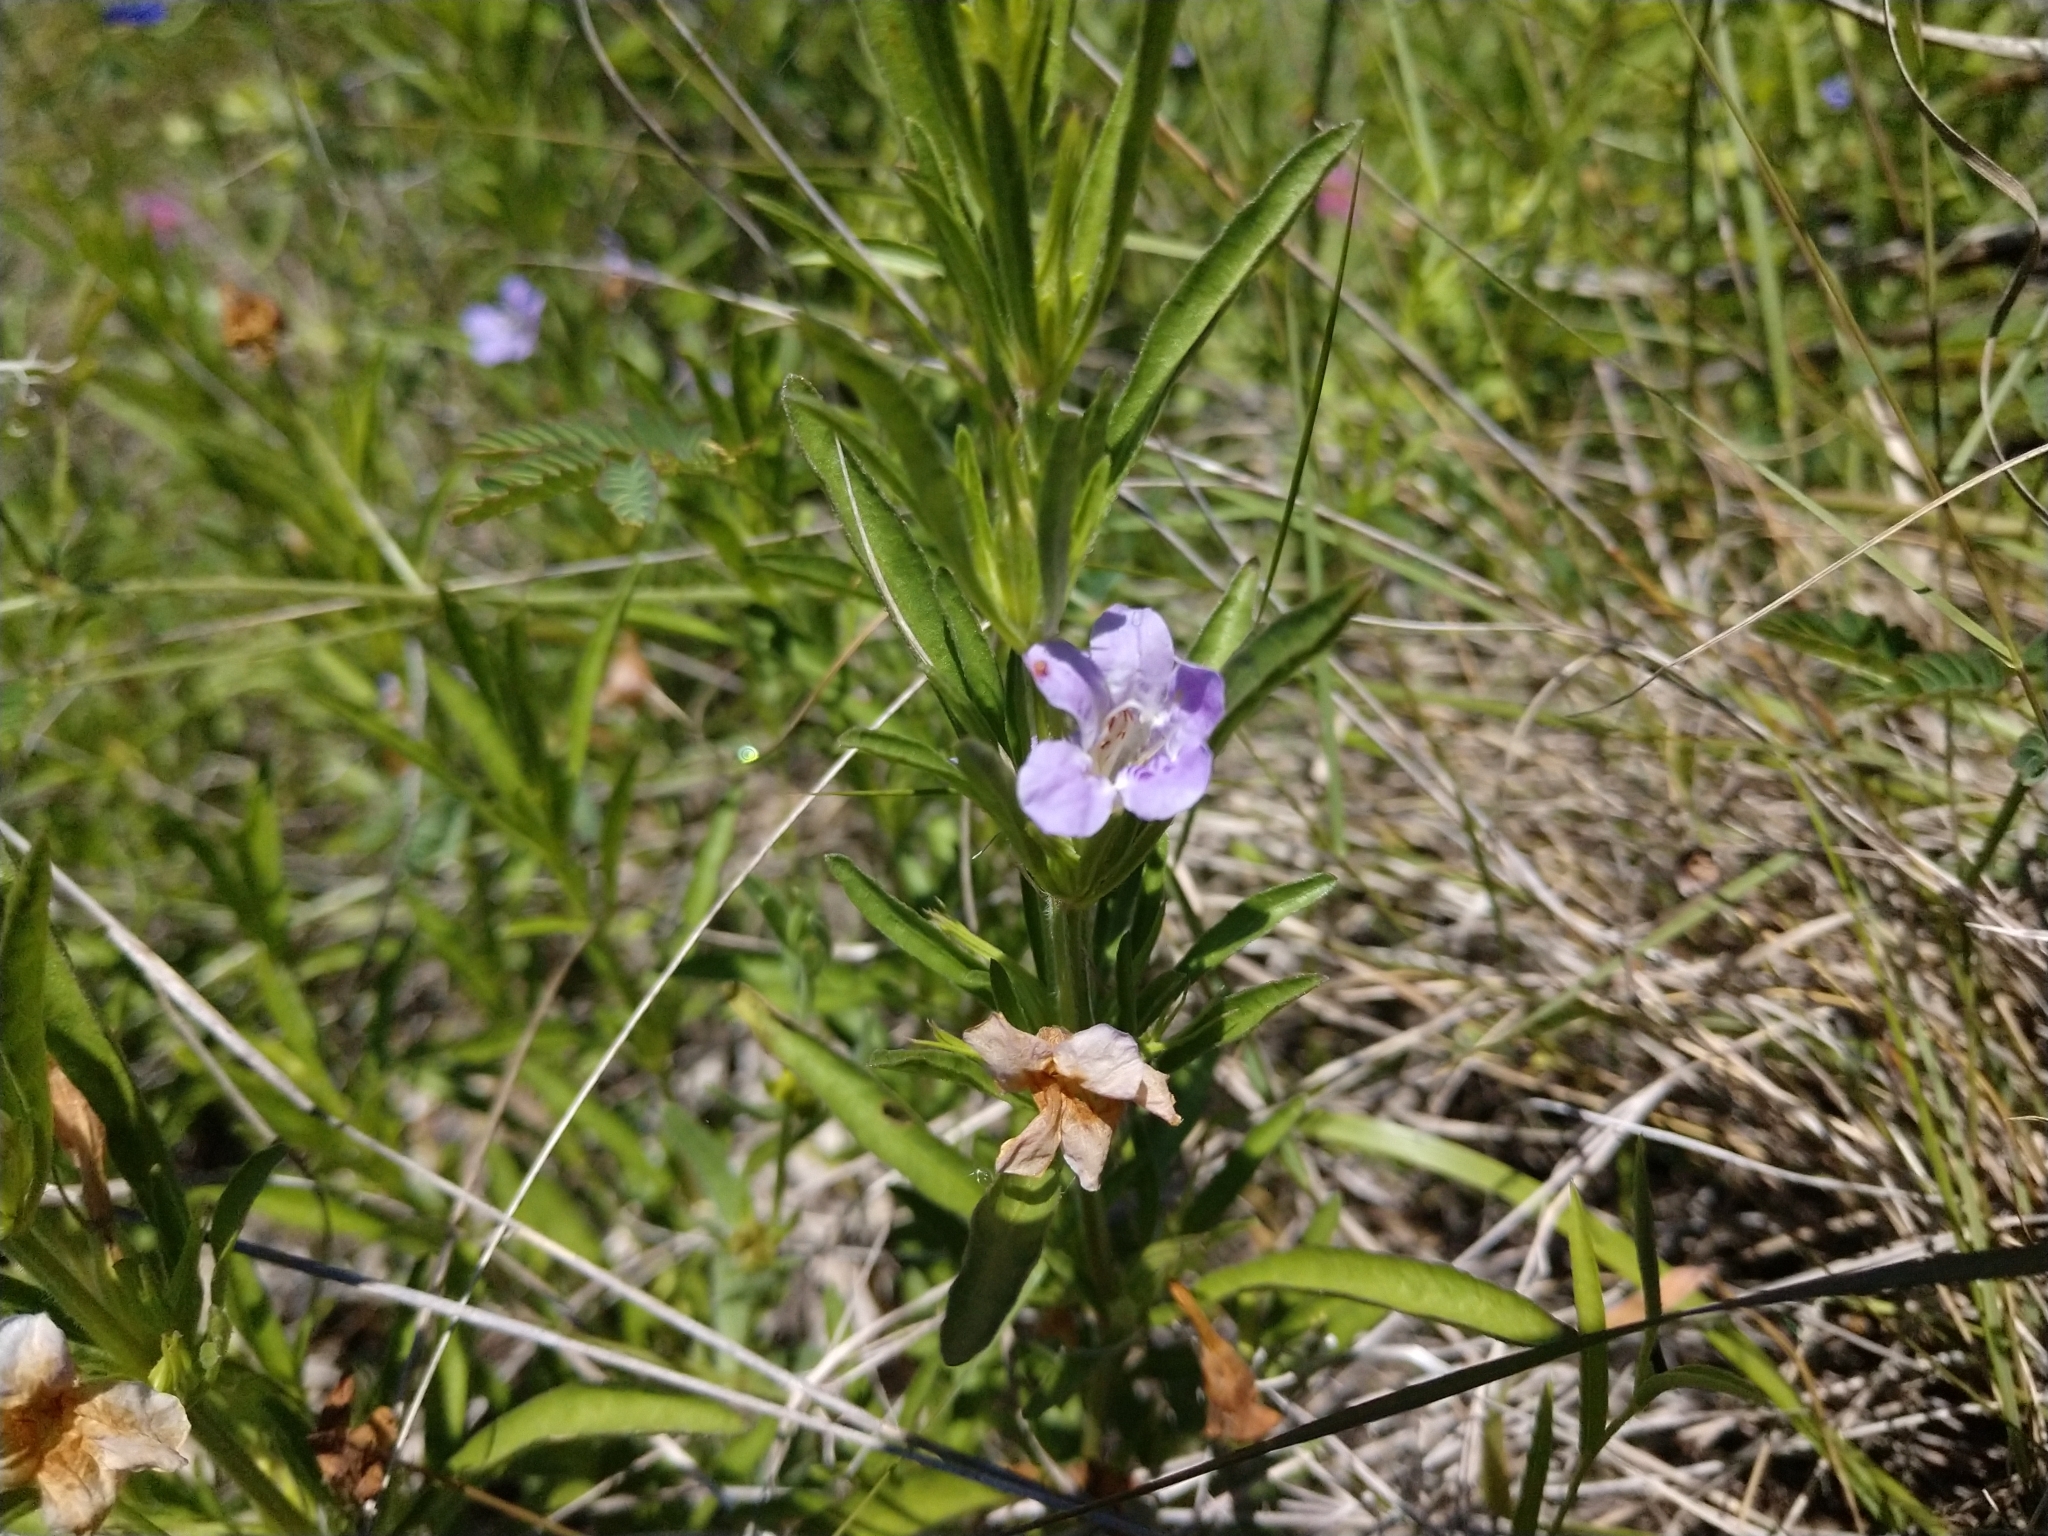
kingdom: Plantae
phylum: Tracheophyta
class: Magnoliopsida
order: Lamiales
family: Acanthaceae
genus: Dyschoriste
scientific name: Dyschoriste linearis
